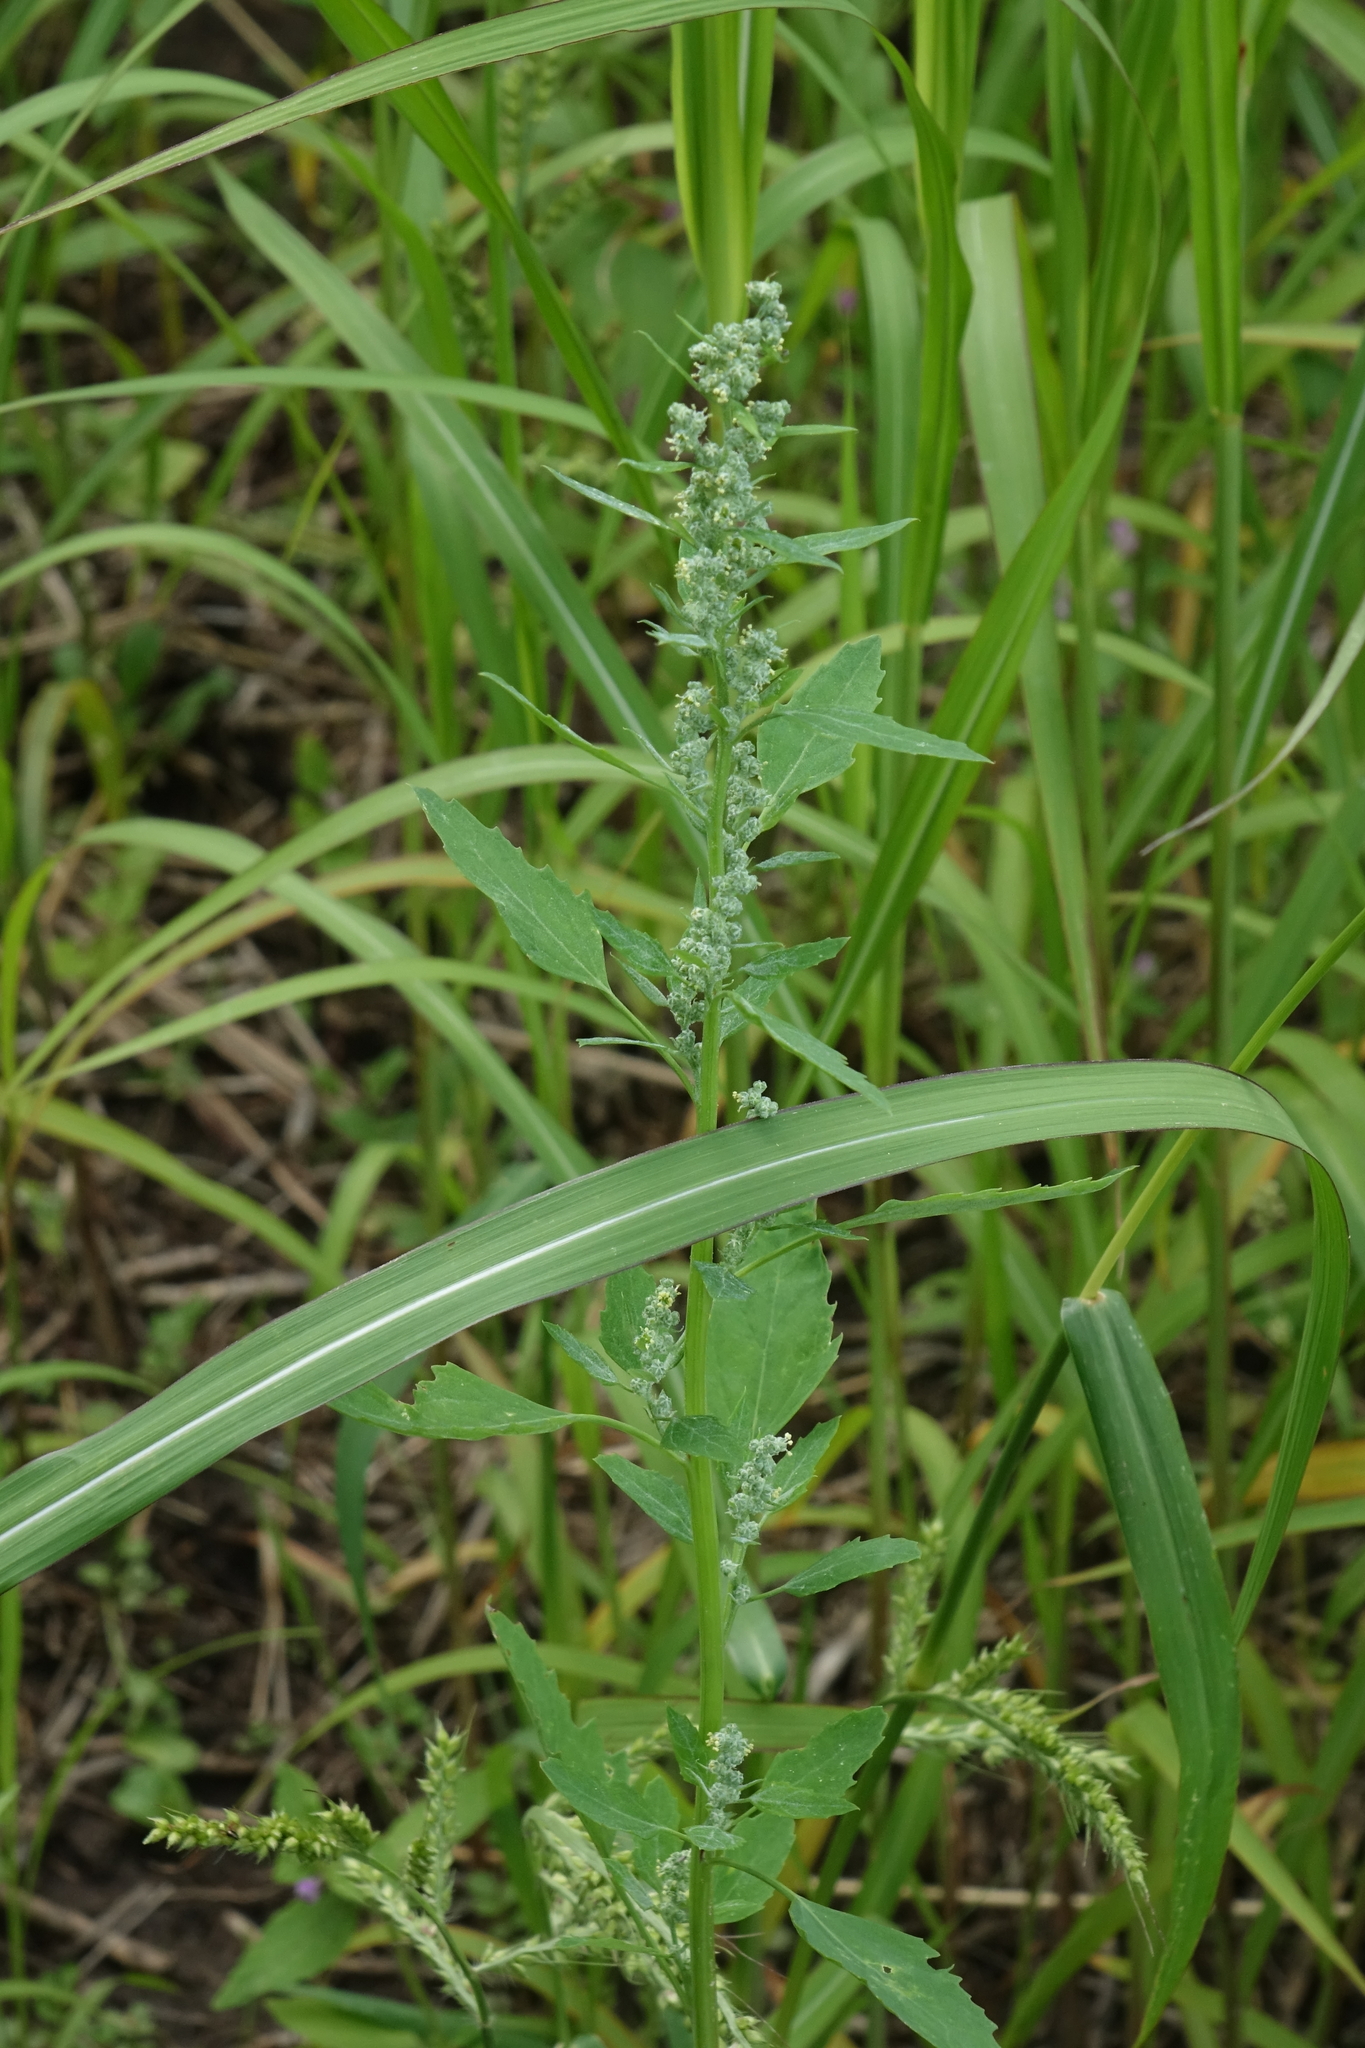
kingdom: Plantae
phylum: Tracheophyta
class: Magnoliopsida
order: Caryophyllales
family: Amaranthaceae
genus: Chenopodium
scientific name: Chenopodium album
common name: Fat-hen
